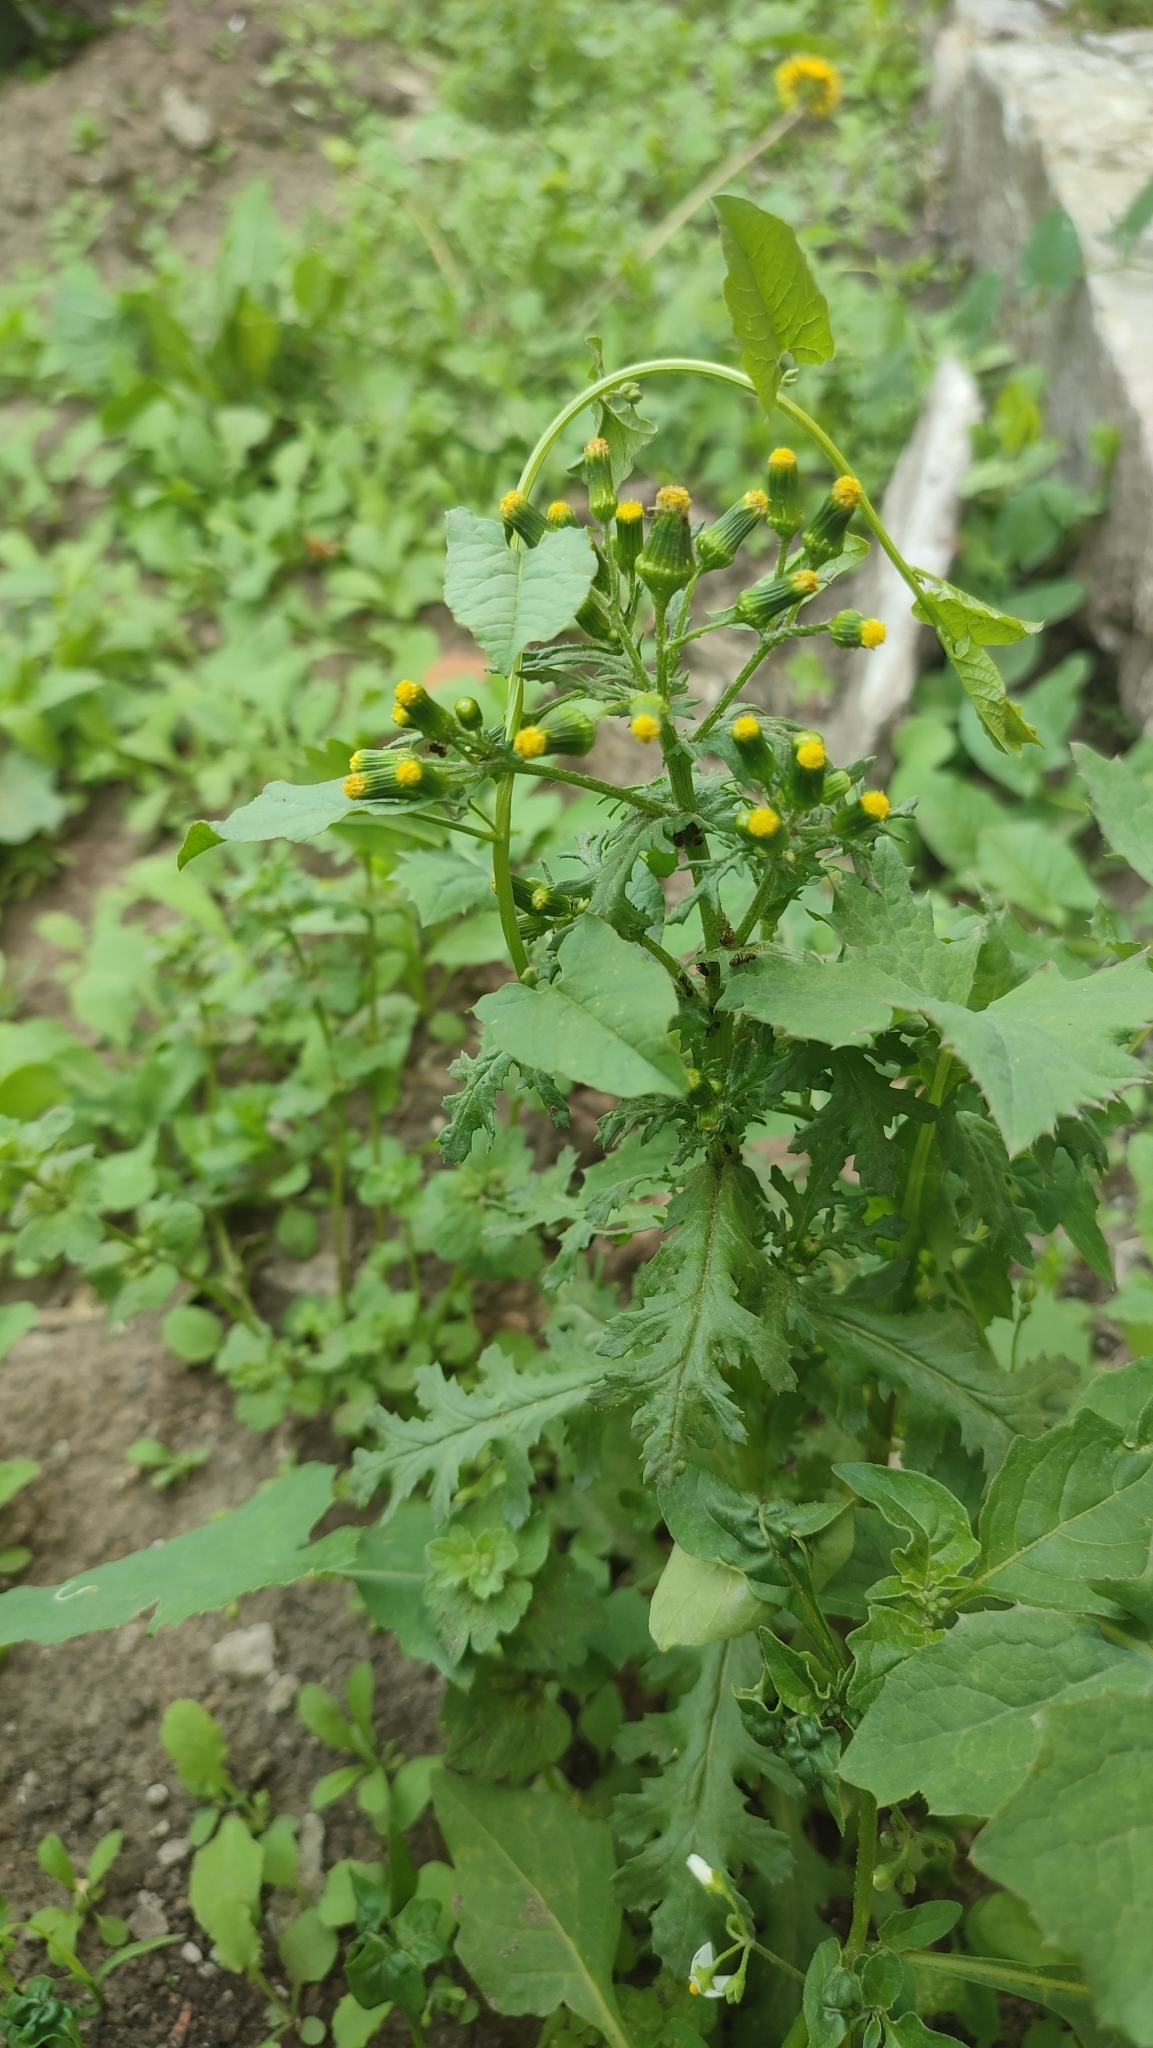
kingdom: Plantae
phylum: Tracheophyta
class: Magnoliopsida
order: Asterales
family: Asteraceae
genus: Senecio
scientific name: Senecio vulgaris
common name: Old-man-in-the-spring
